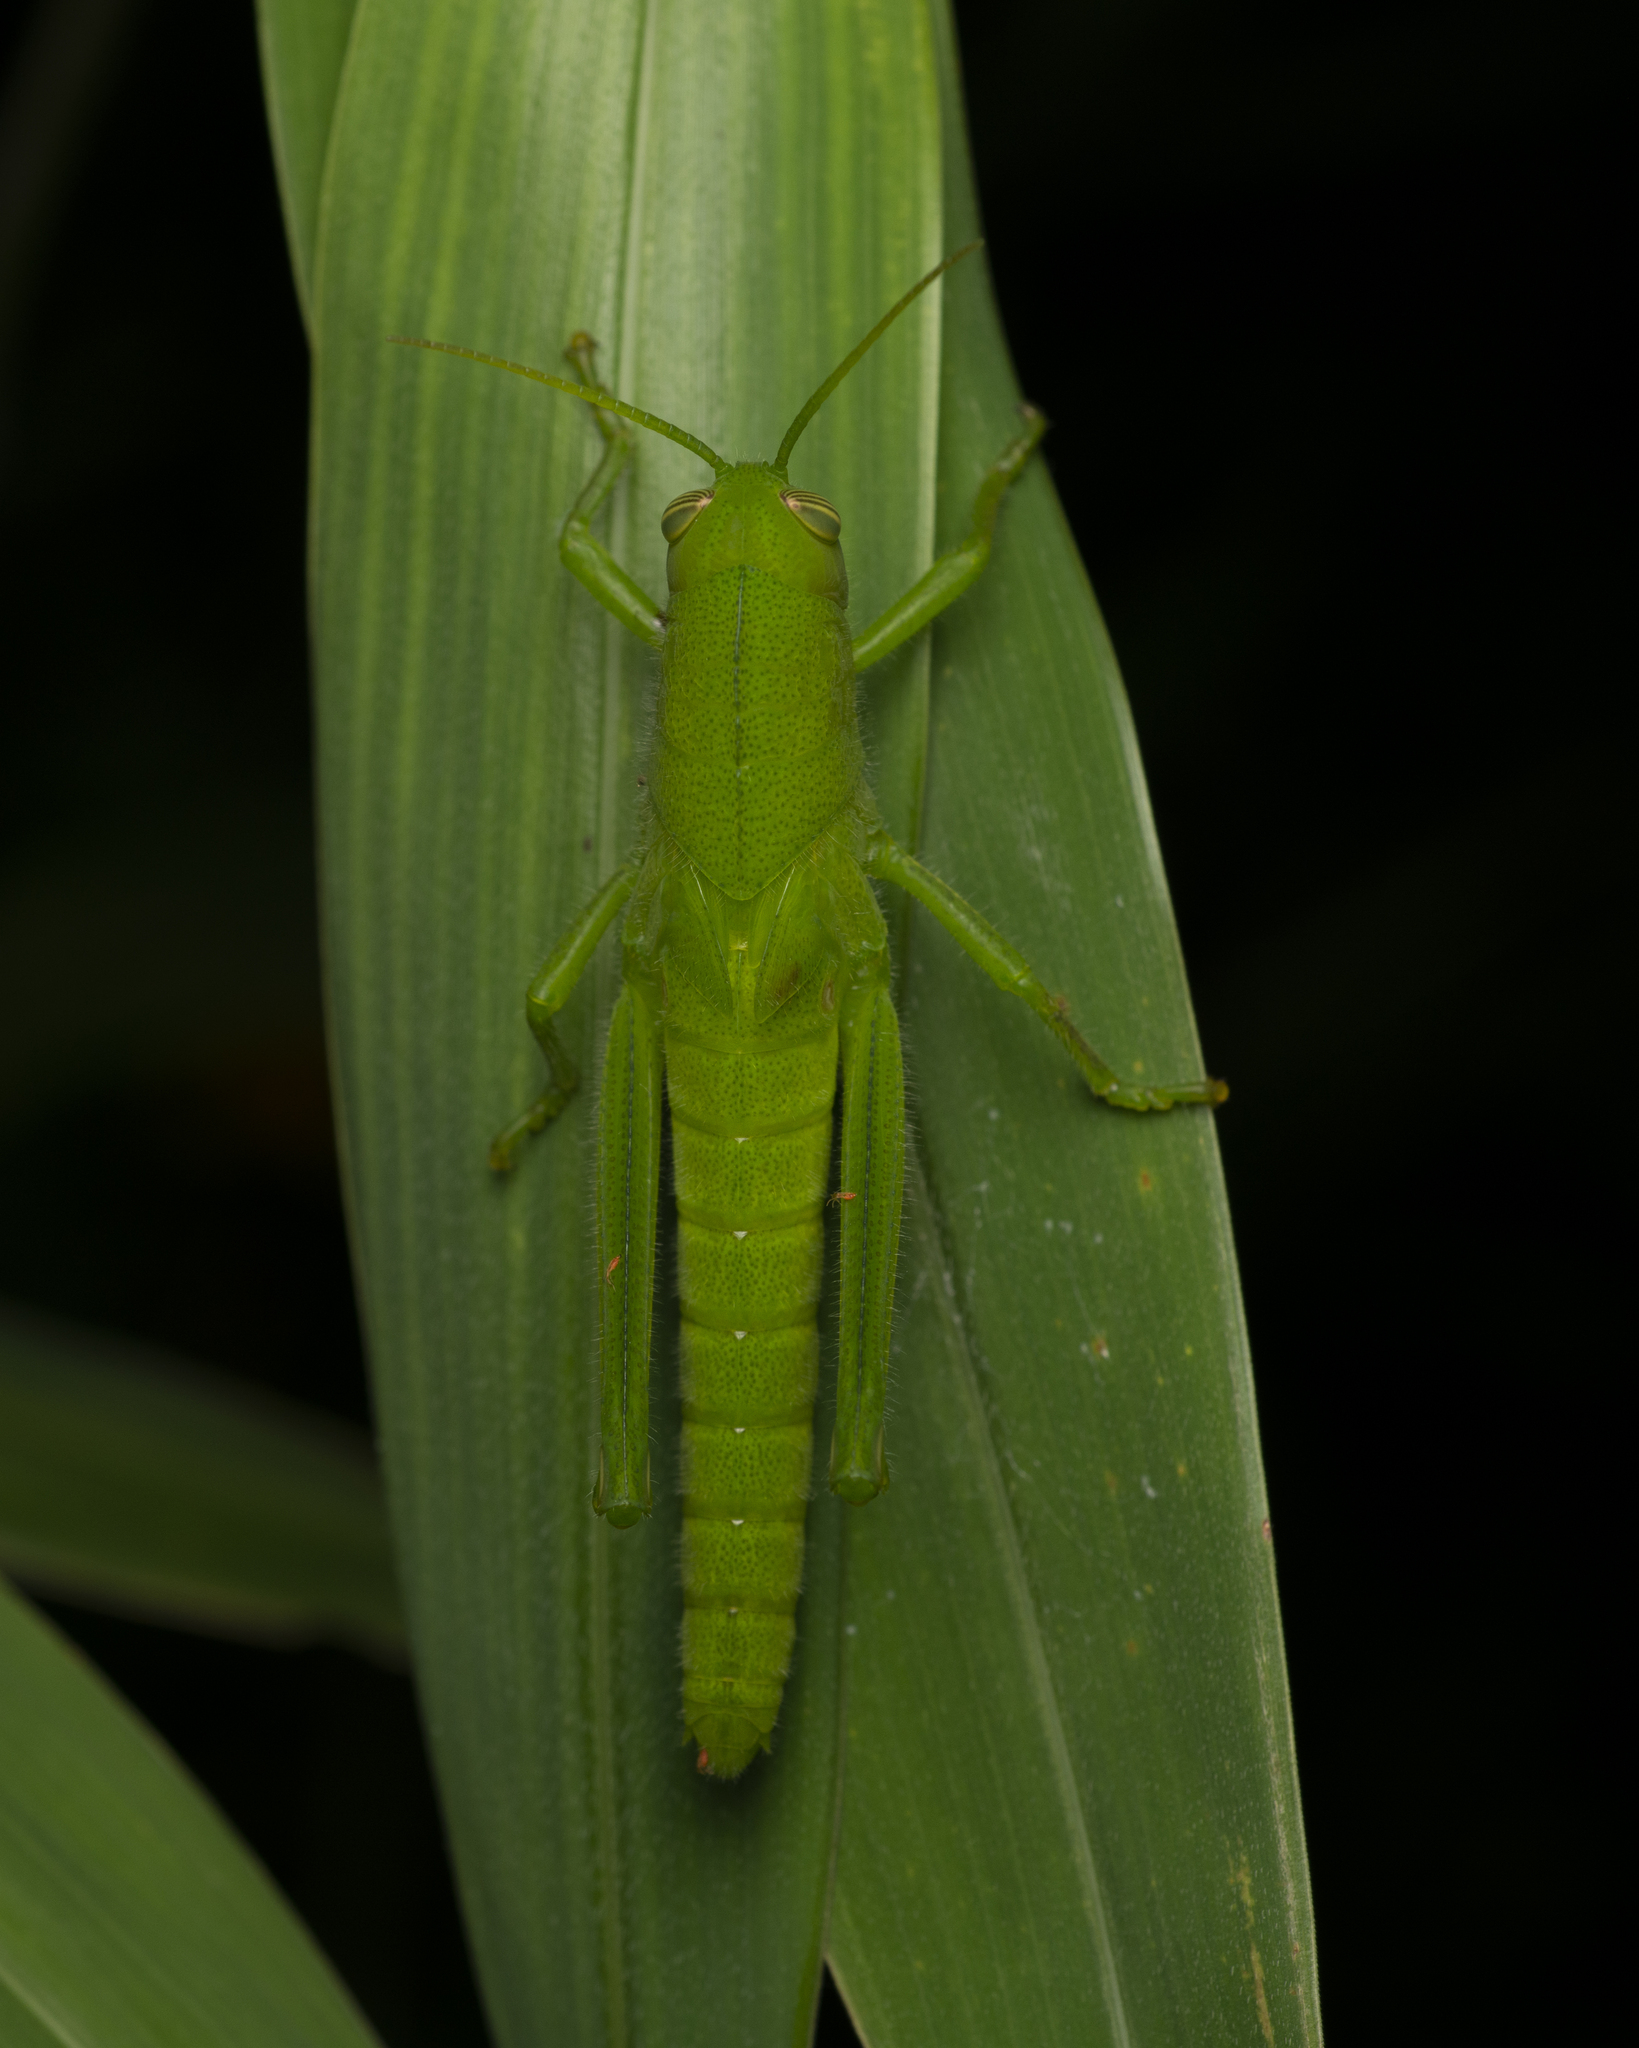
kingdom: Animalia
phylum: Arthropoda
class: Insecta
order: Orthoptera
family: Acrididae
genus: Chondracris
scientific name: Chondracris rosea
